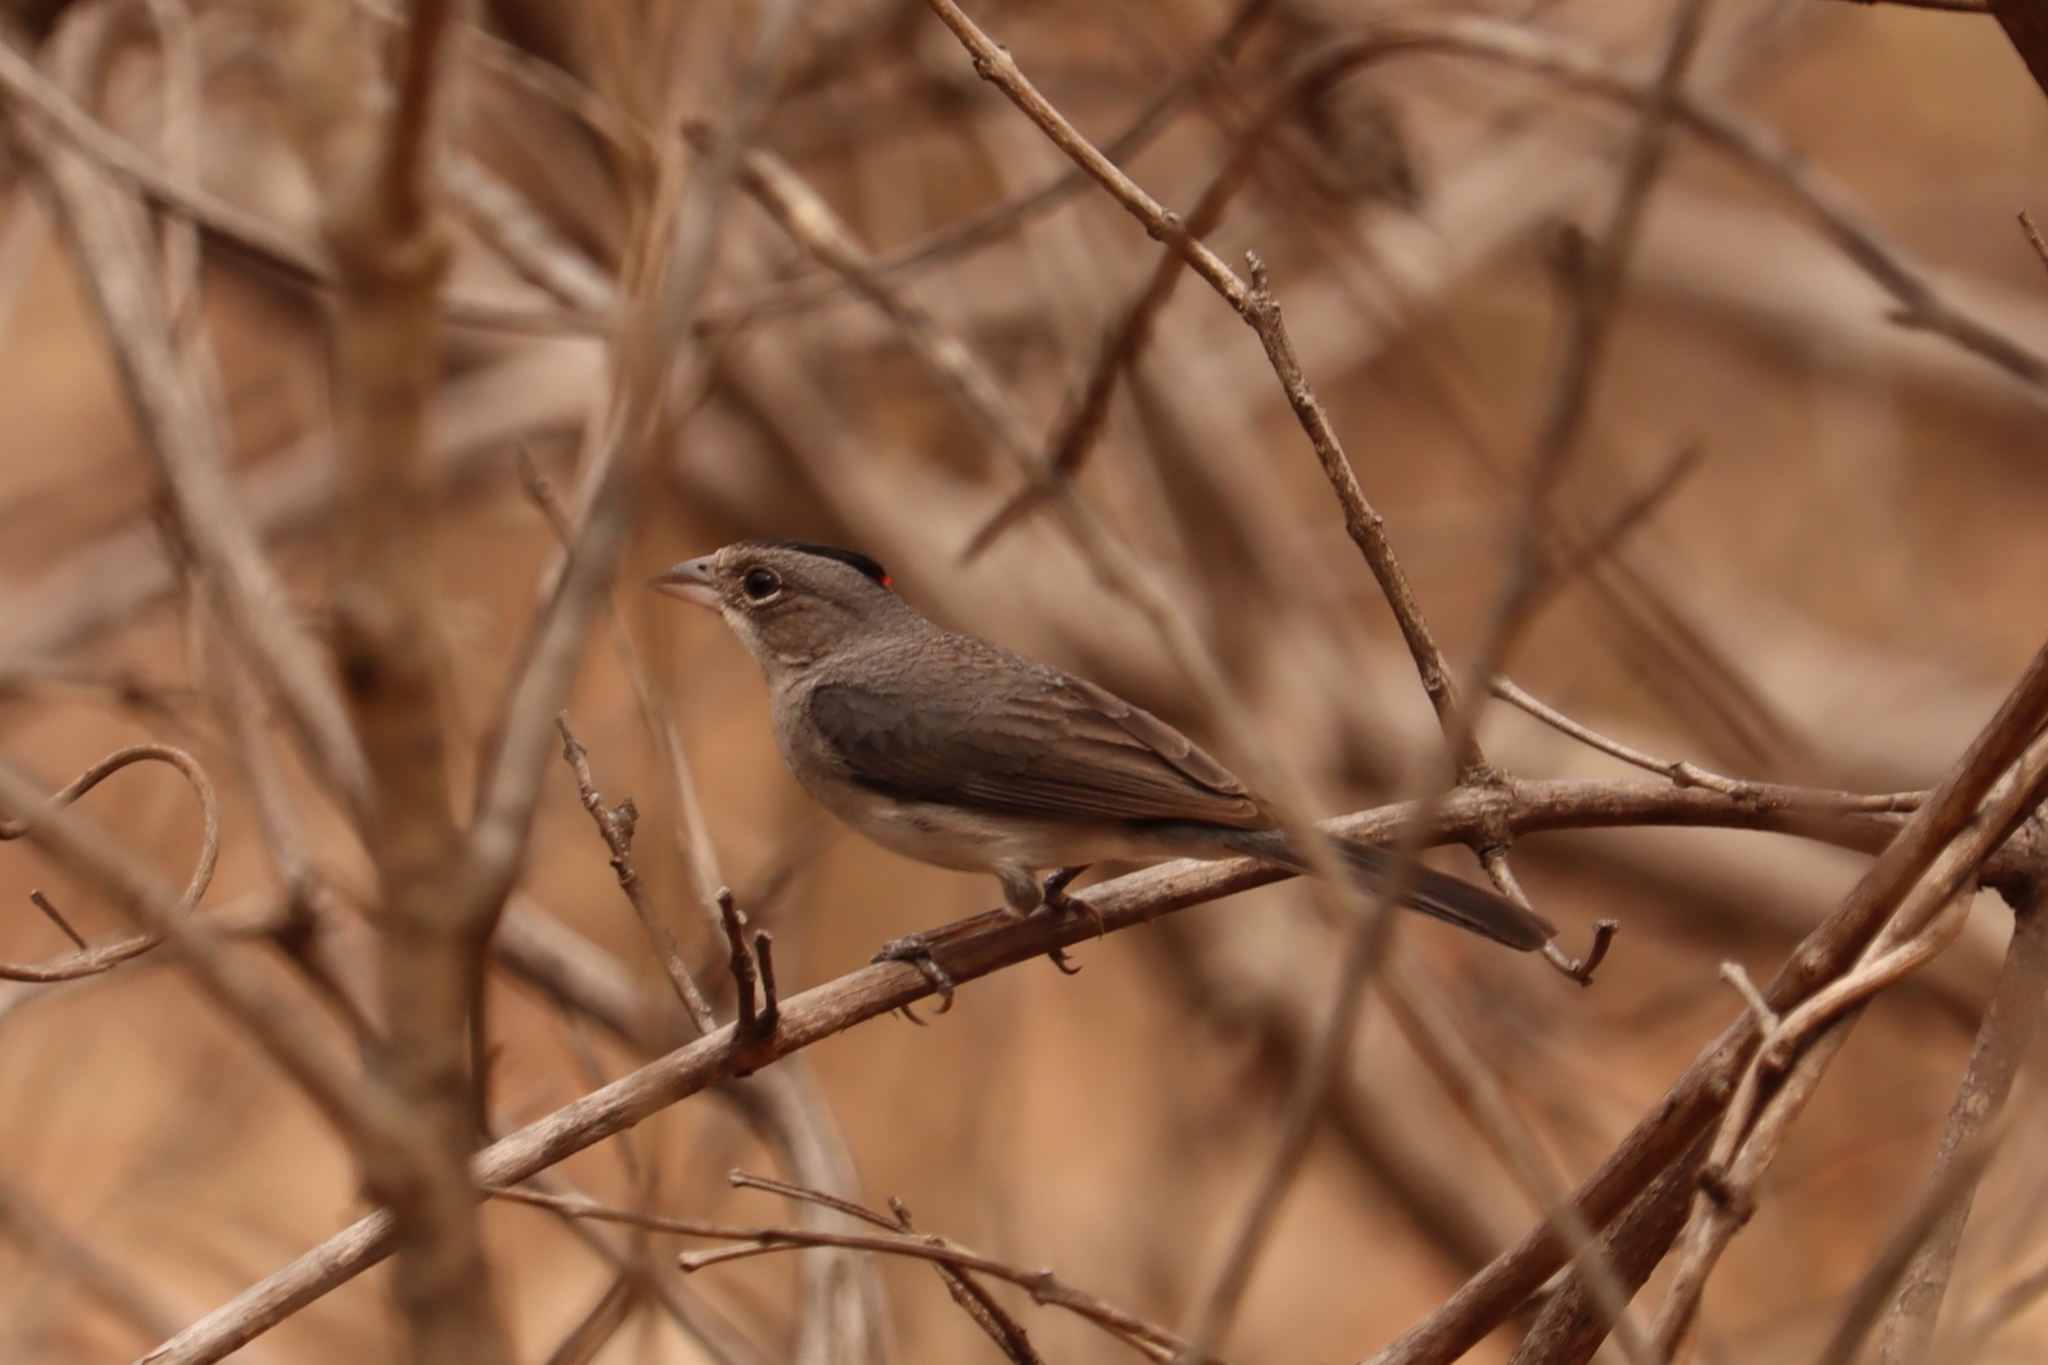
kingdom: Animalia
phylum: Chordata
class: Aves
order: Passeriformes
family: Thraupidae
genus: Coryphospingus
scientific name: Coryphospingus pileatus
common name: Grey pileated finch
